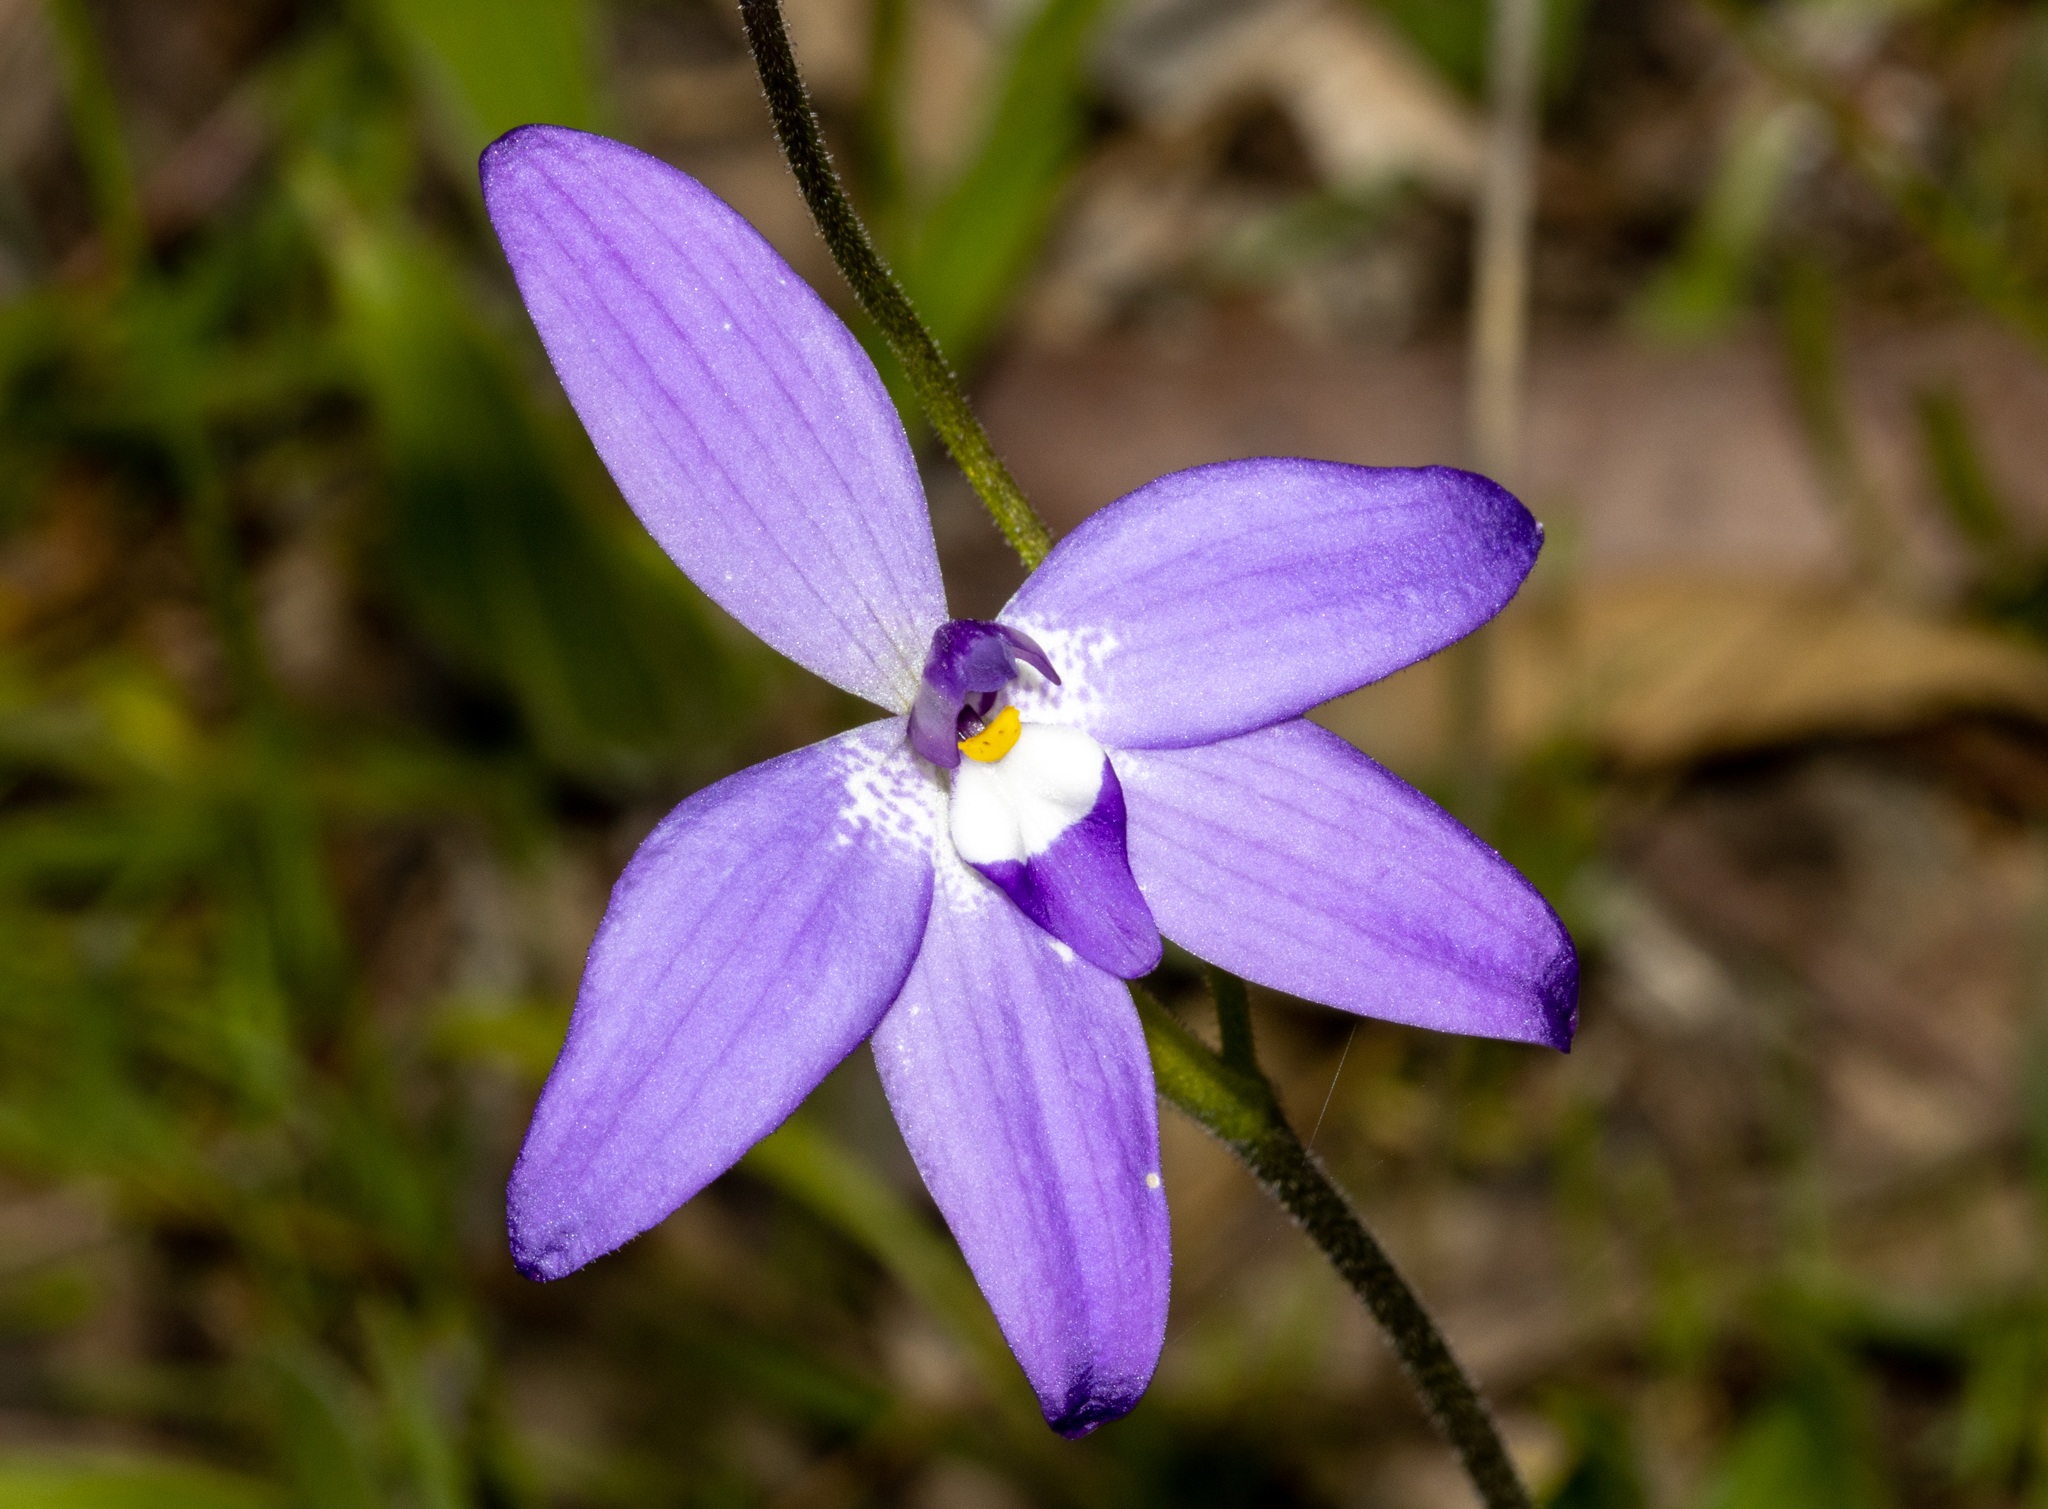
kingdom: Plantae
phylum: Tracheophyta
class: Liliopsida
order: Asparagales
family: Orchidaceae
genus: Caladenia
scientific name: Caladenia major
